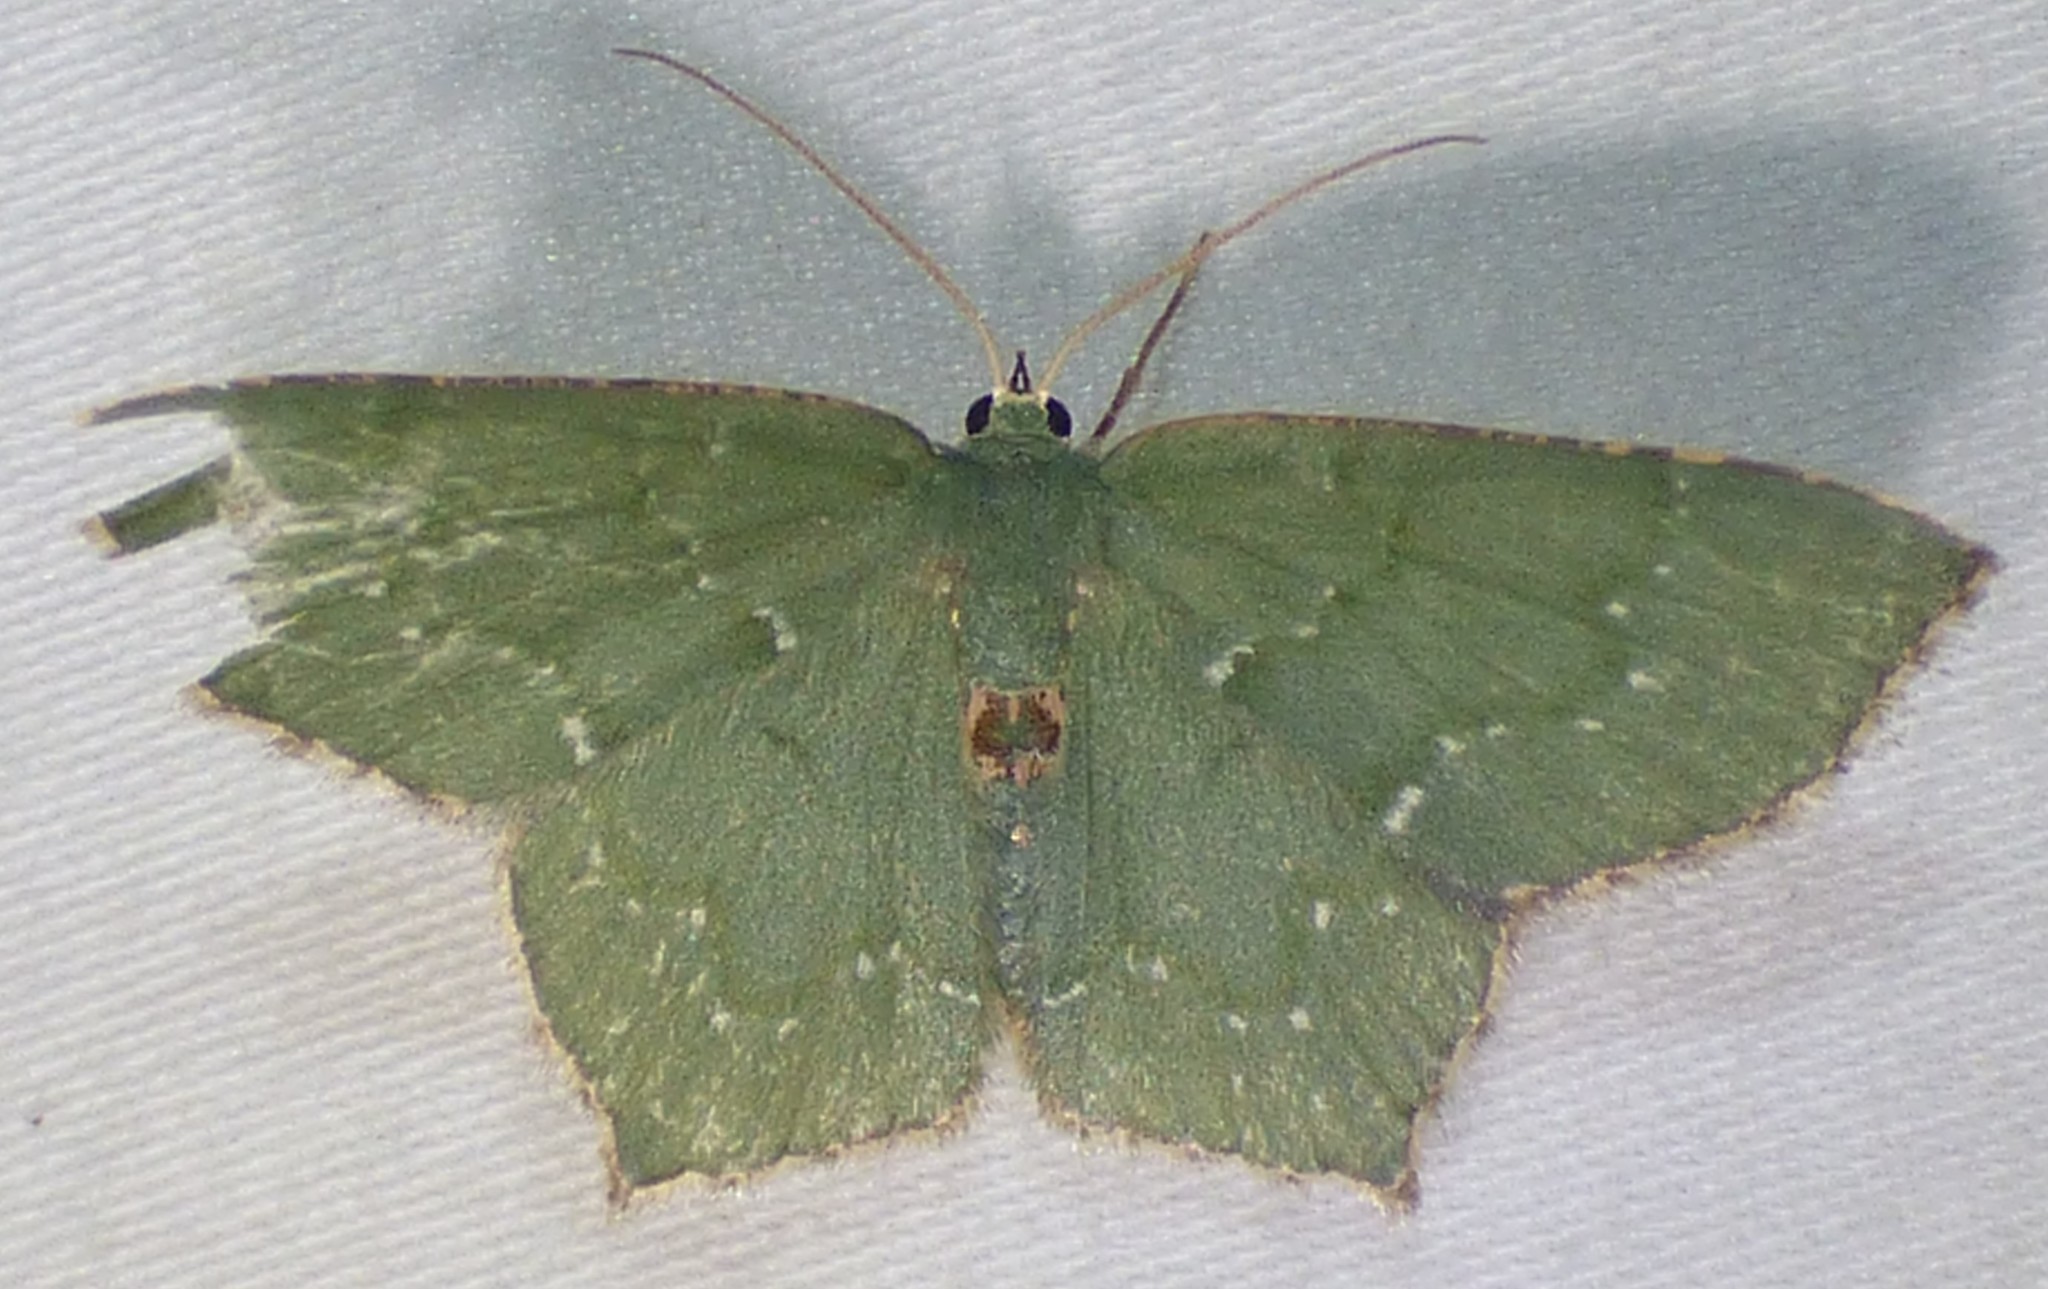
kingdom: Animalia
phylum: Arthropoda
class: Insecta
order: Lepidoptera
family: Geometridae
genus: Chloropteryx
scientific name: Chloropteryx tepperaria
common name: Angle winged emerald moth
